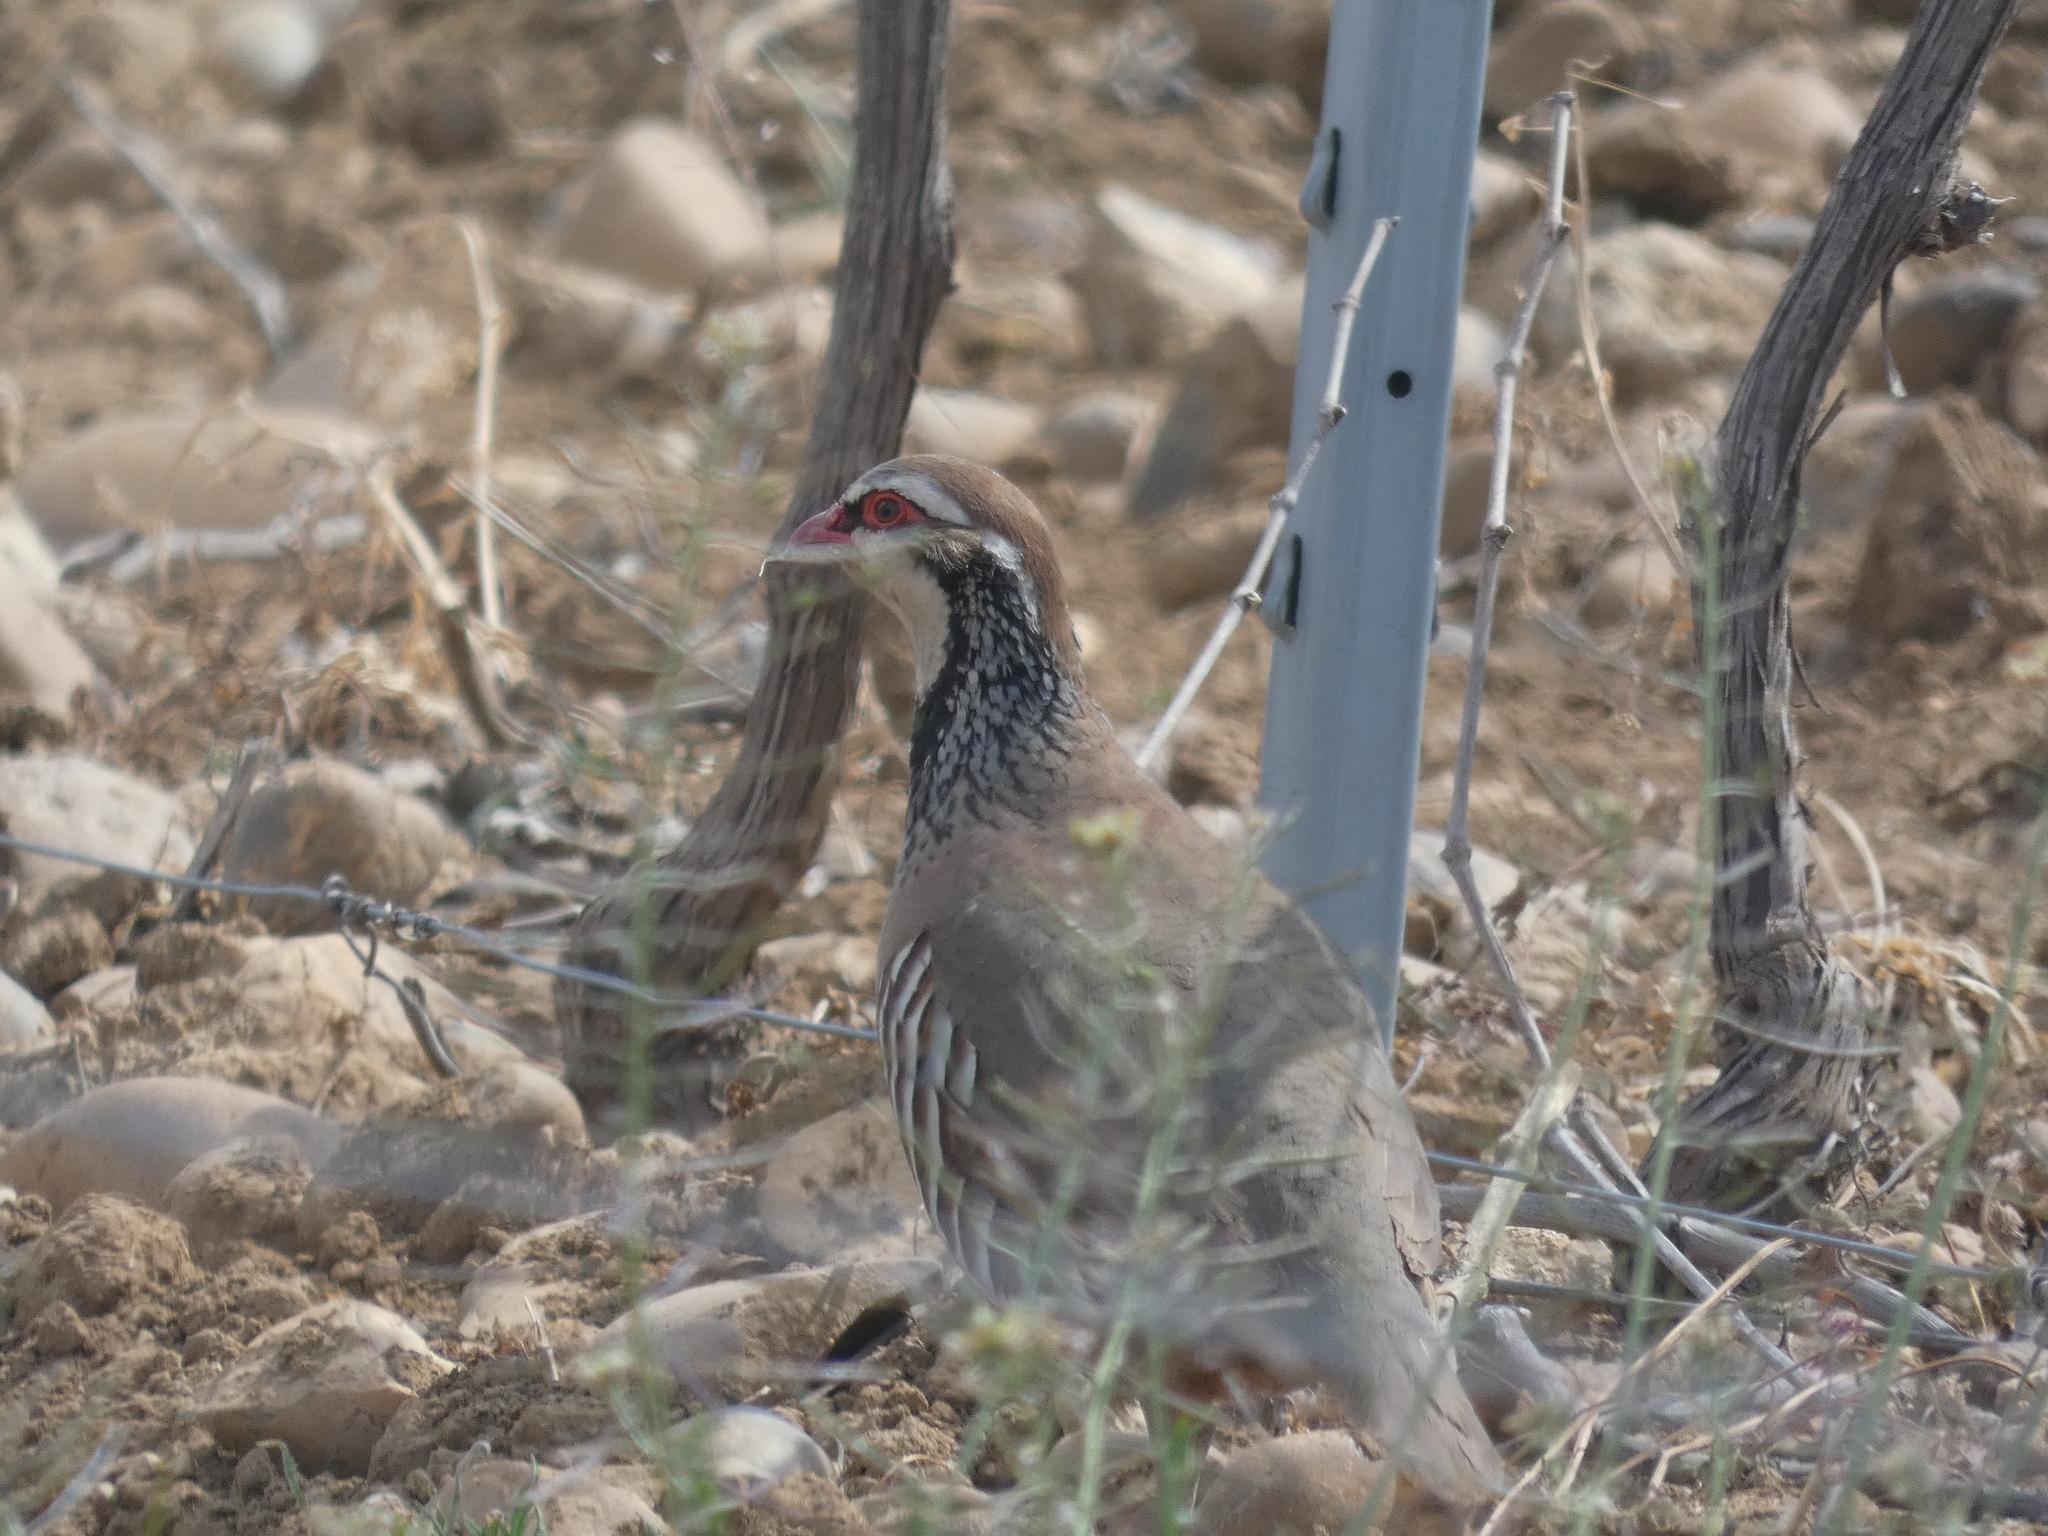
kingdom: Animalia
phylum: Chordata
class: Aves
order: Galliformes
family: Phasianidae
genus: Alectoris
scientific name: Alectoris rufa
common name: Red-legged partridge
